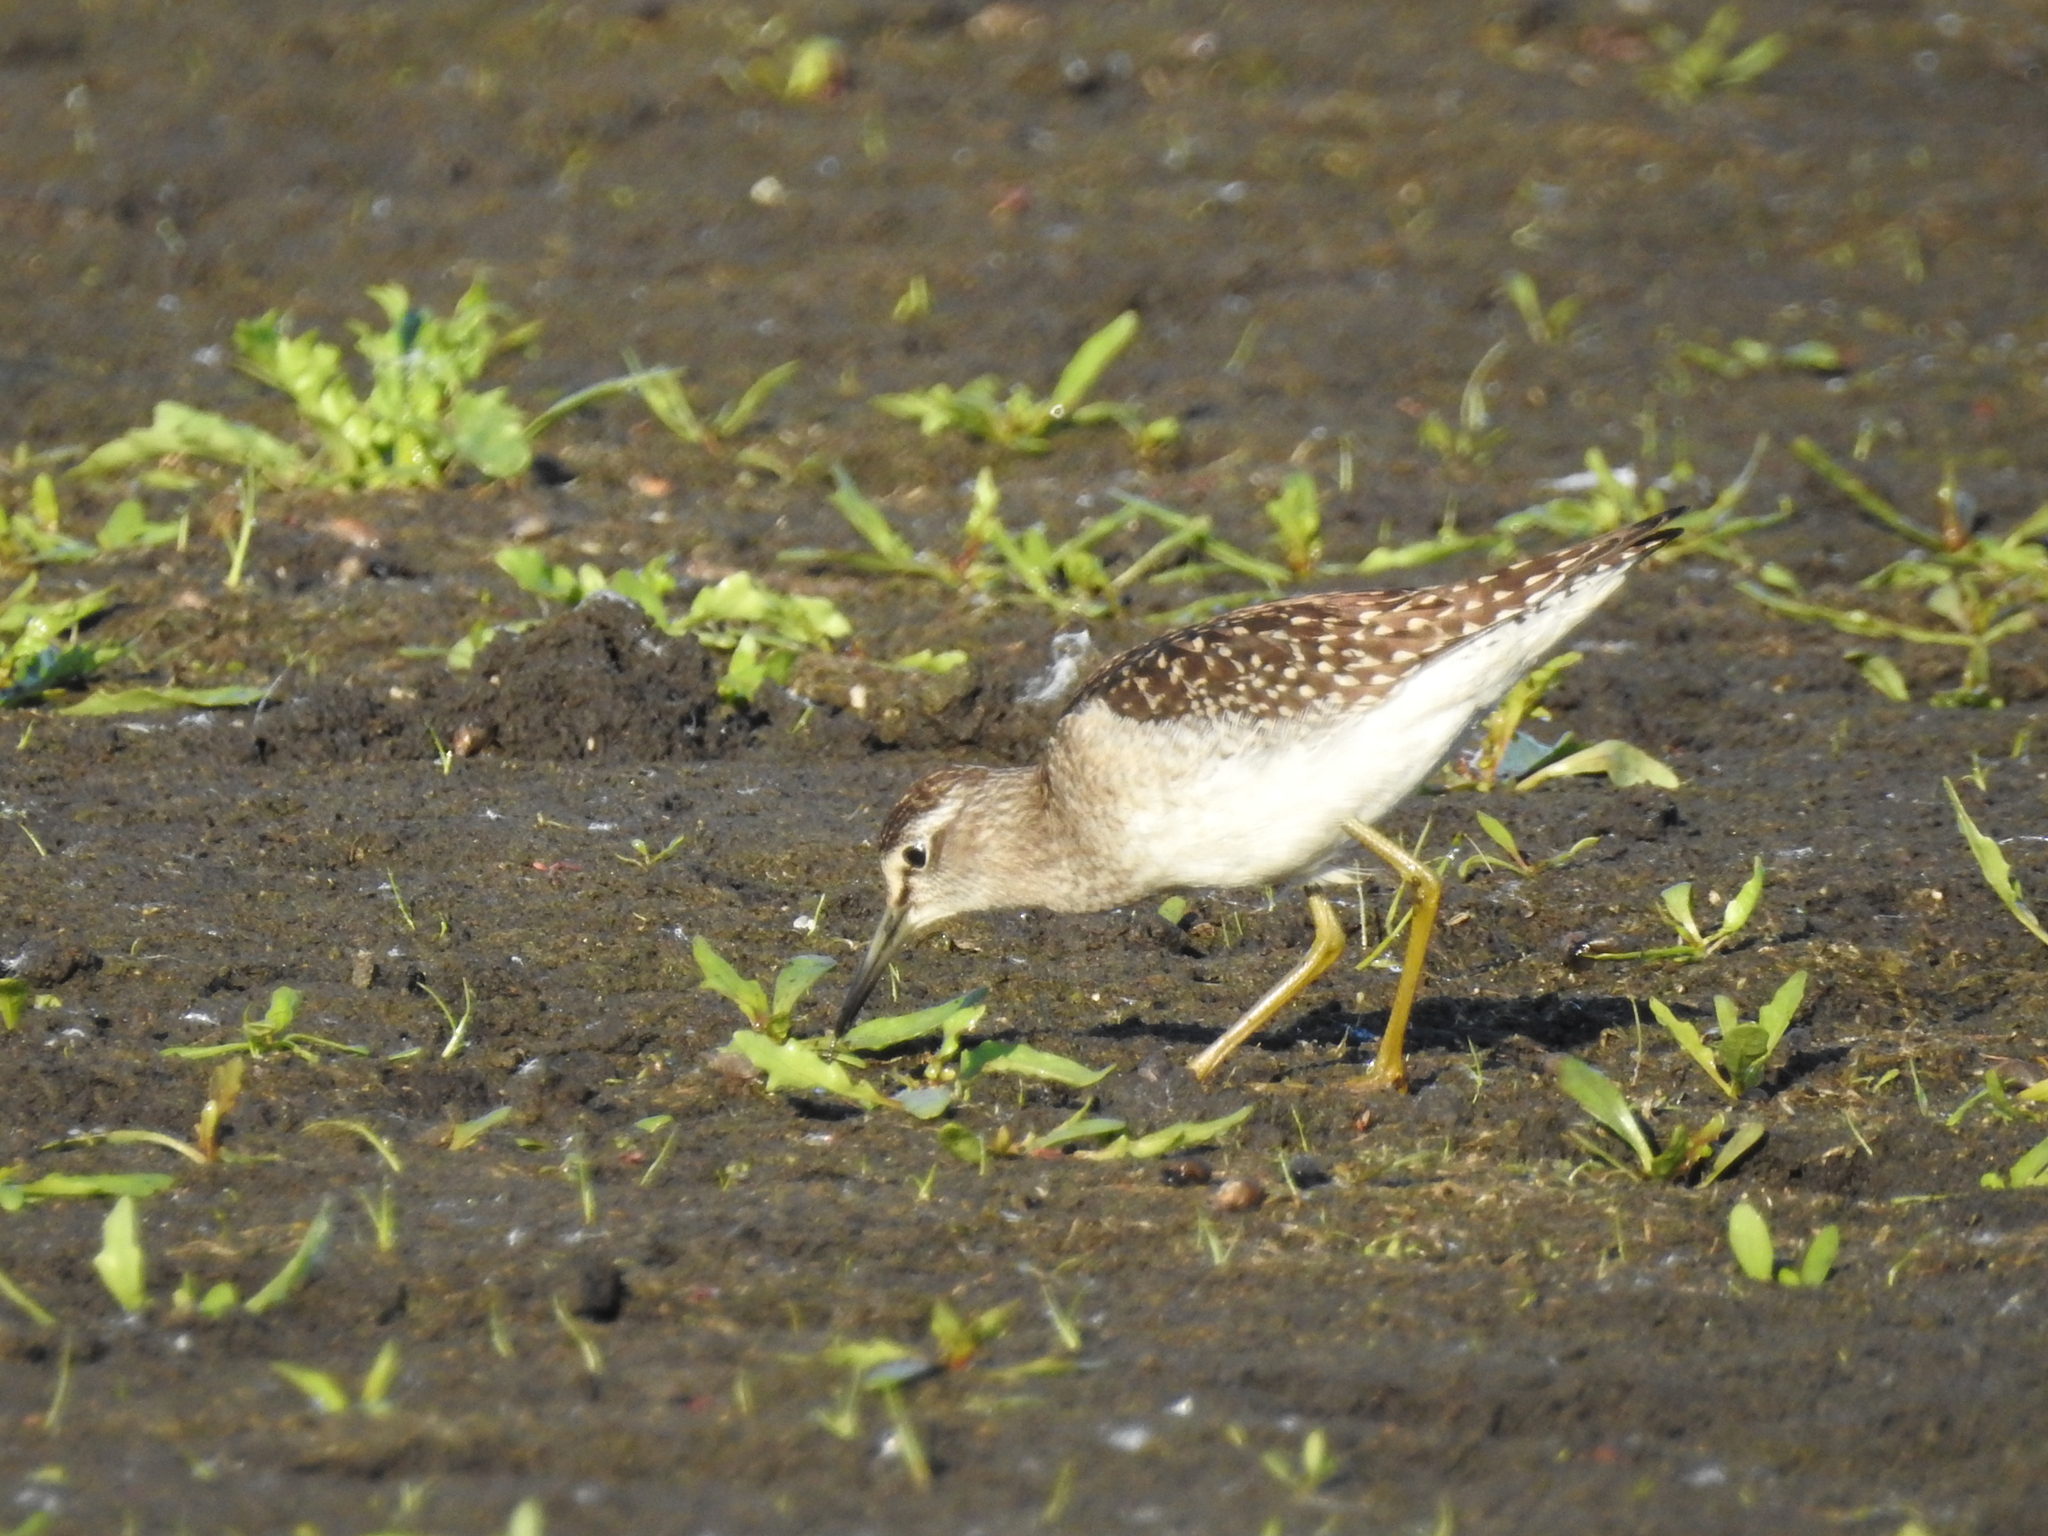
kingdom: Animalia
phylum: Chordata
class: Aves
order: Charadriiformes
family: Scolopacidae
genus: Tringa
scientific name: Tringa glareola
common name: Wood sandpiper
